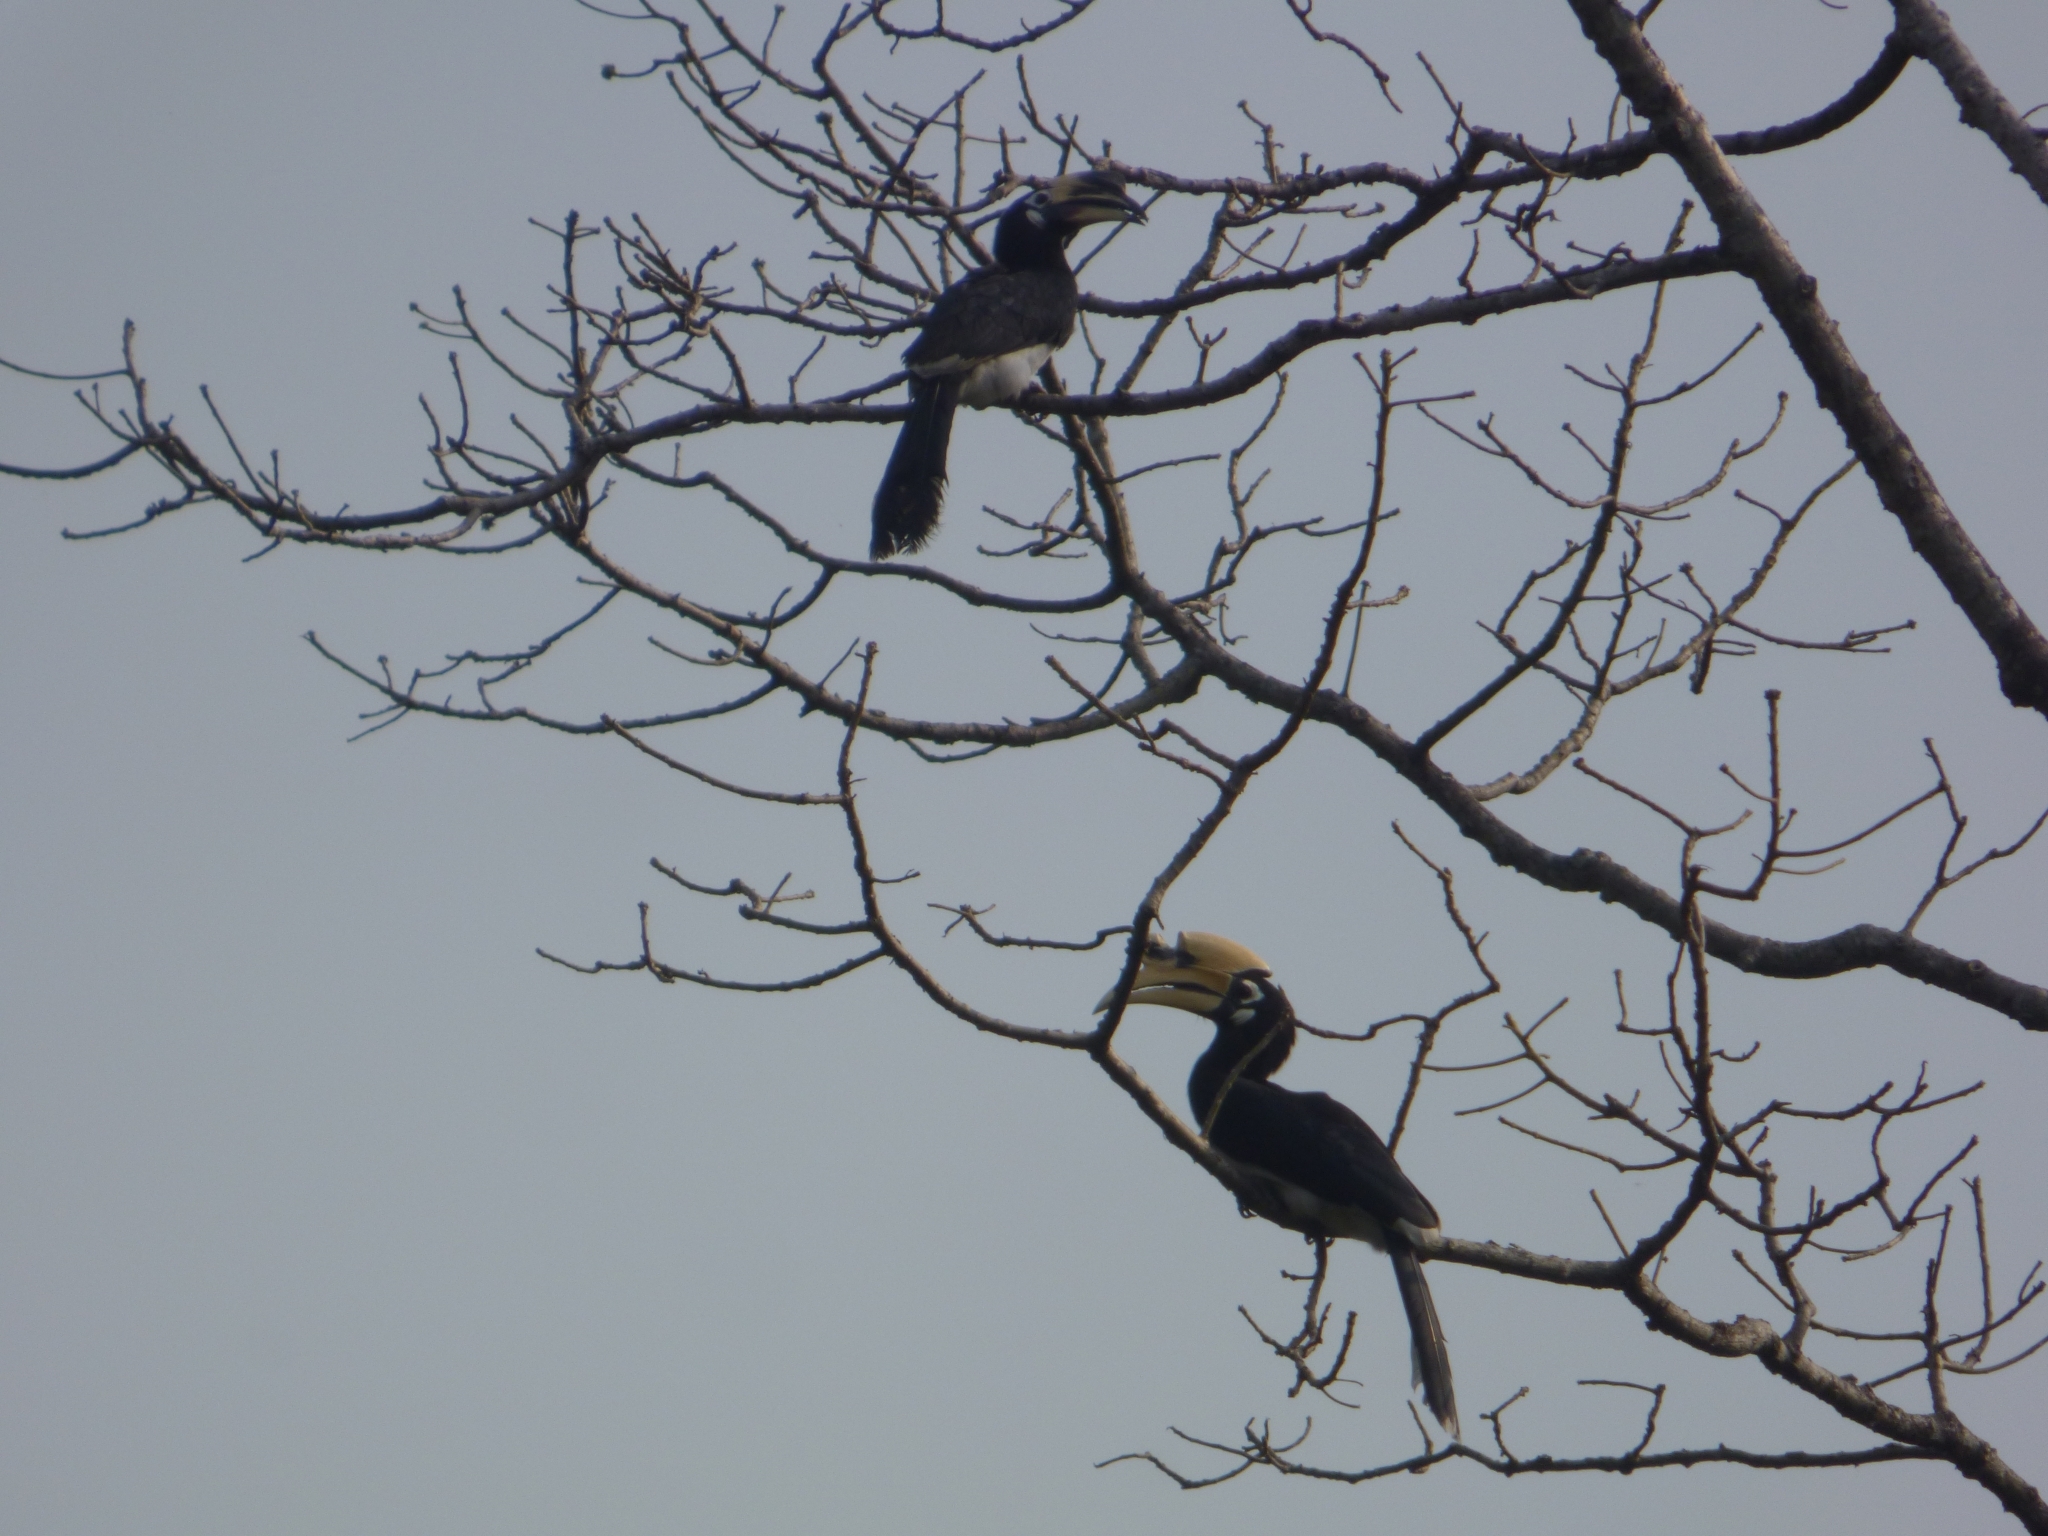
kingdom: Animalia
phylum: Chordata
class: Aves
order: Bucerotiformes
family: Bucerotidae
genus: Anthracoceros
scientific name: Anthracoceros albirostris
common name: Oriental pied-hornbill
